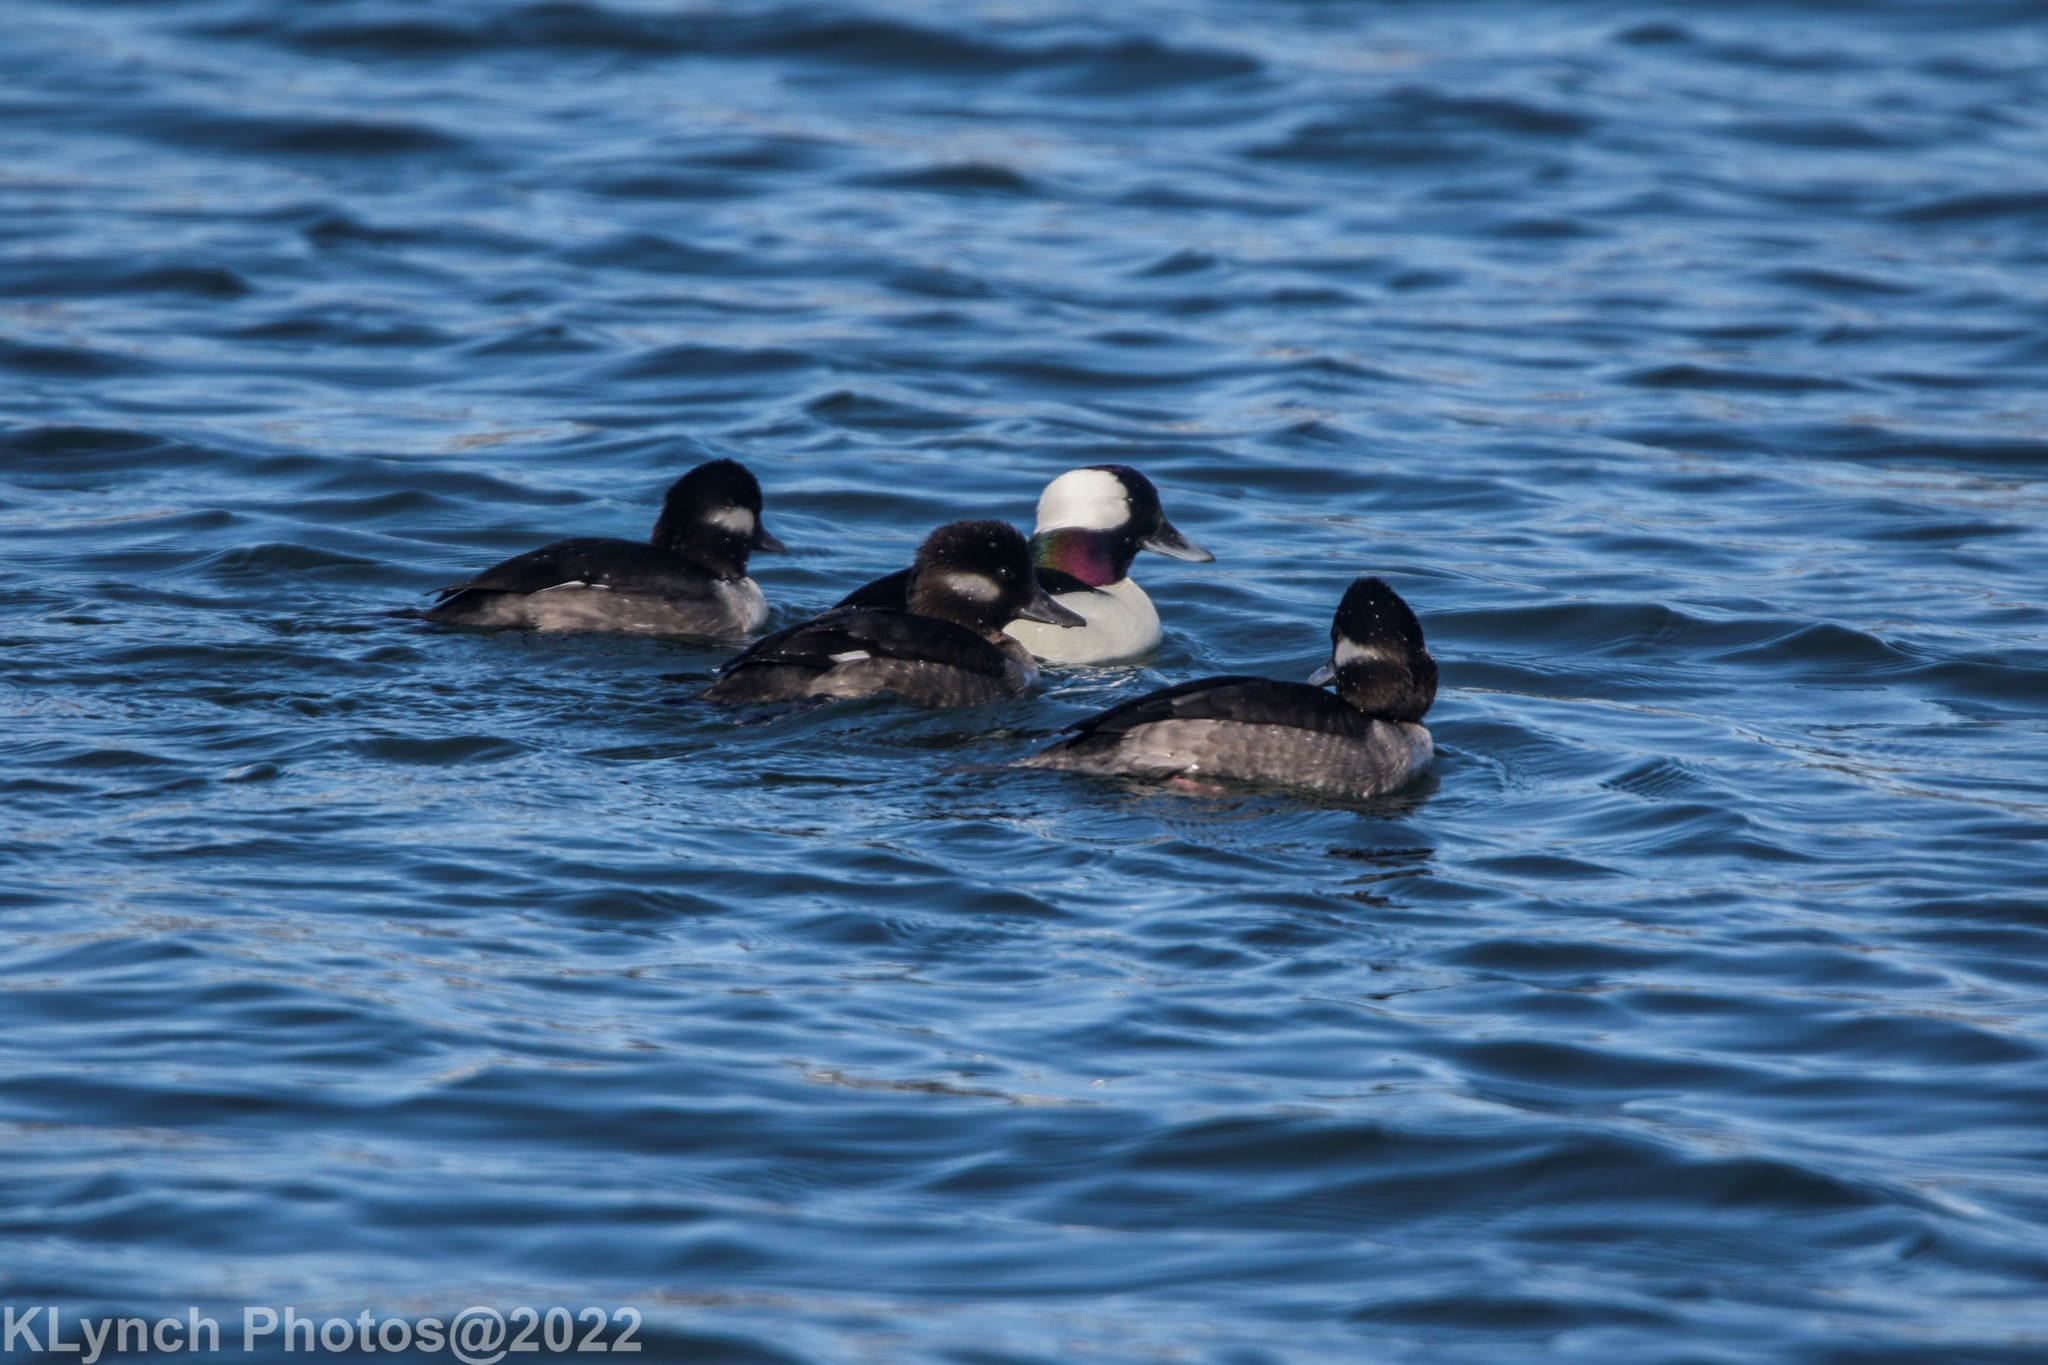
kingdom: Animalia
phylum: Chordata
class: Aves
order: Anseriformes
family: Anatidae
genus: Bucephala
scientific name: Bucephala albeola
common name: Bufflehead
